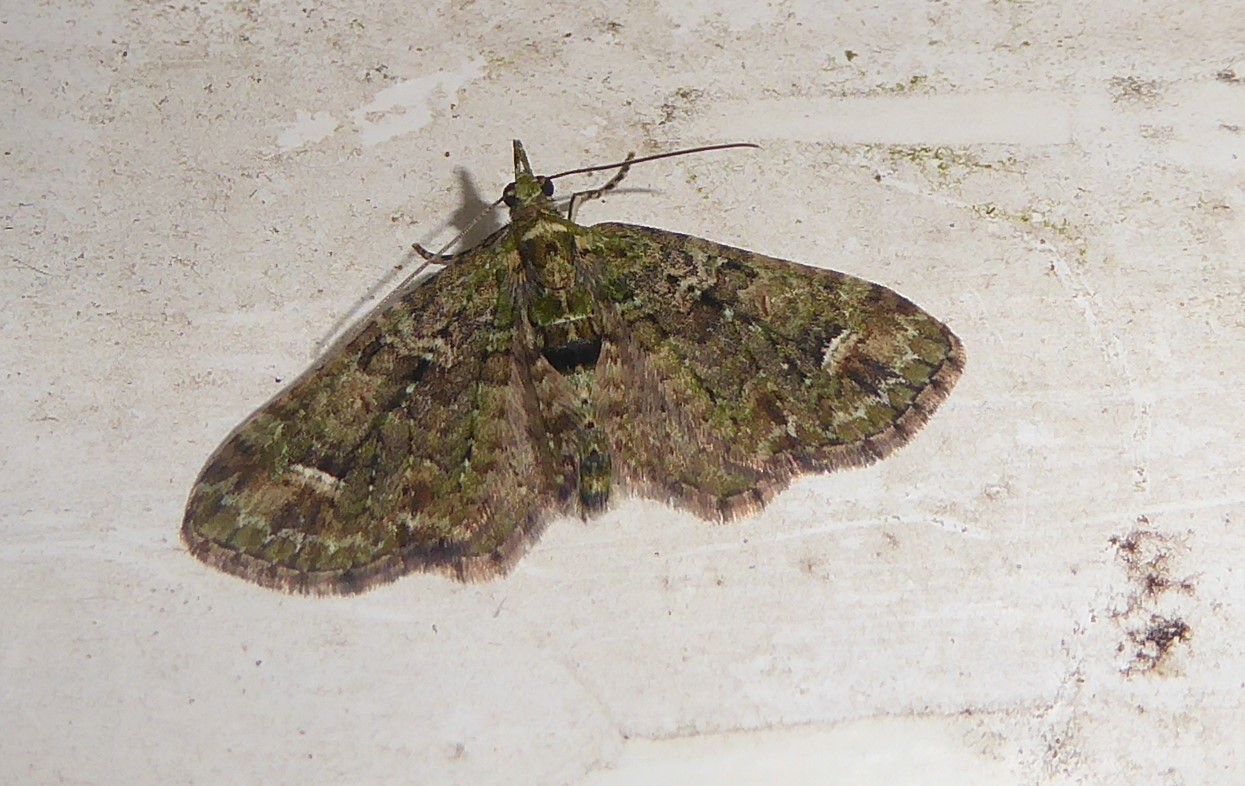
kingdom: Animalia
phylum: Arthropoda
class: Insecta
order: Lepidoptera
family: Geometridae
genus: Idaea
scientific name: Idaea mutanda
